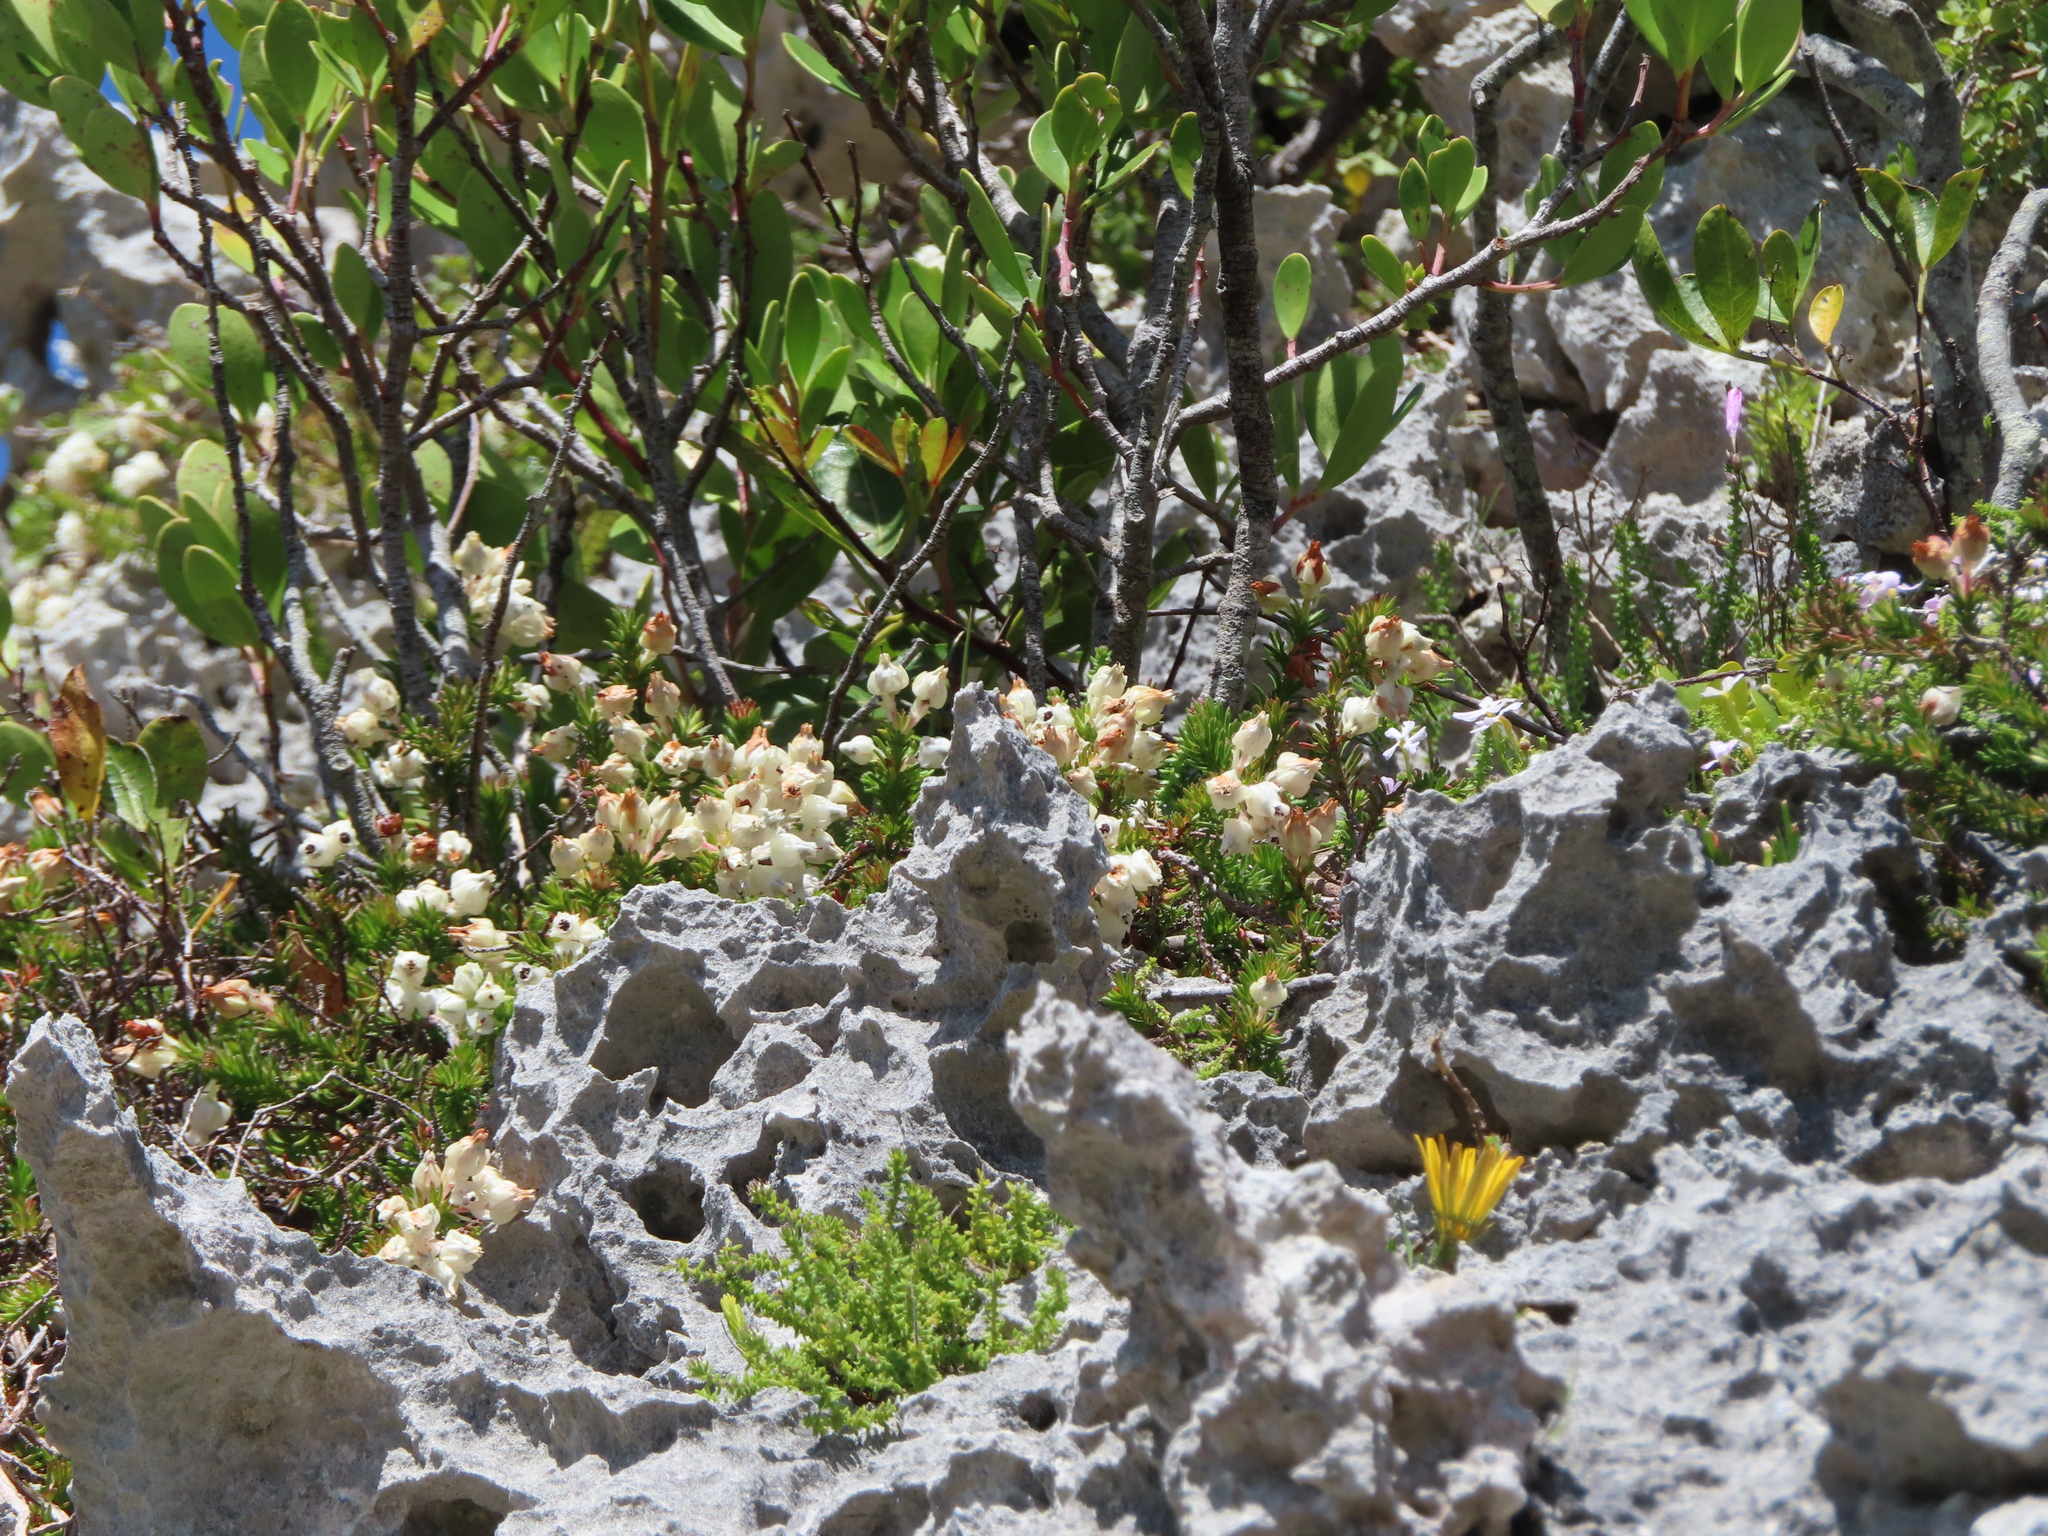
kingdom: Plantae
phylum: Tracheophyta
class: Magnoliopsida
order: Ericales
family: Ericaceae
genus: Erica
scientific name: Erica calcareophila
